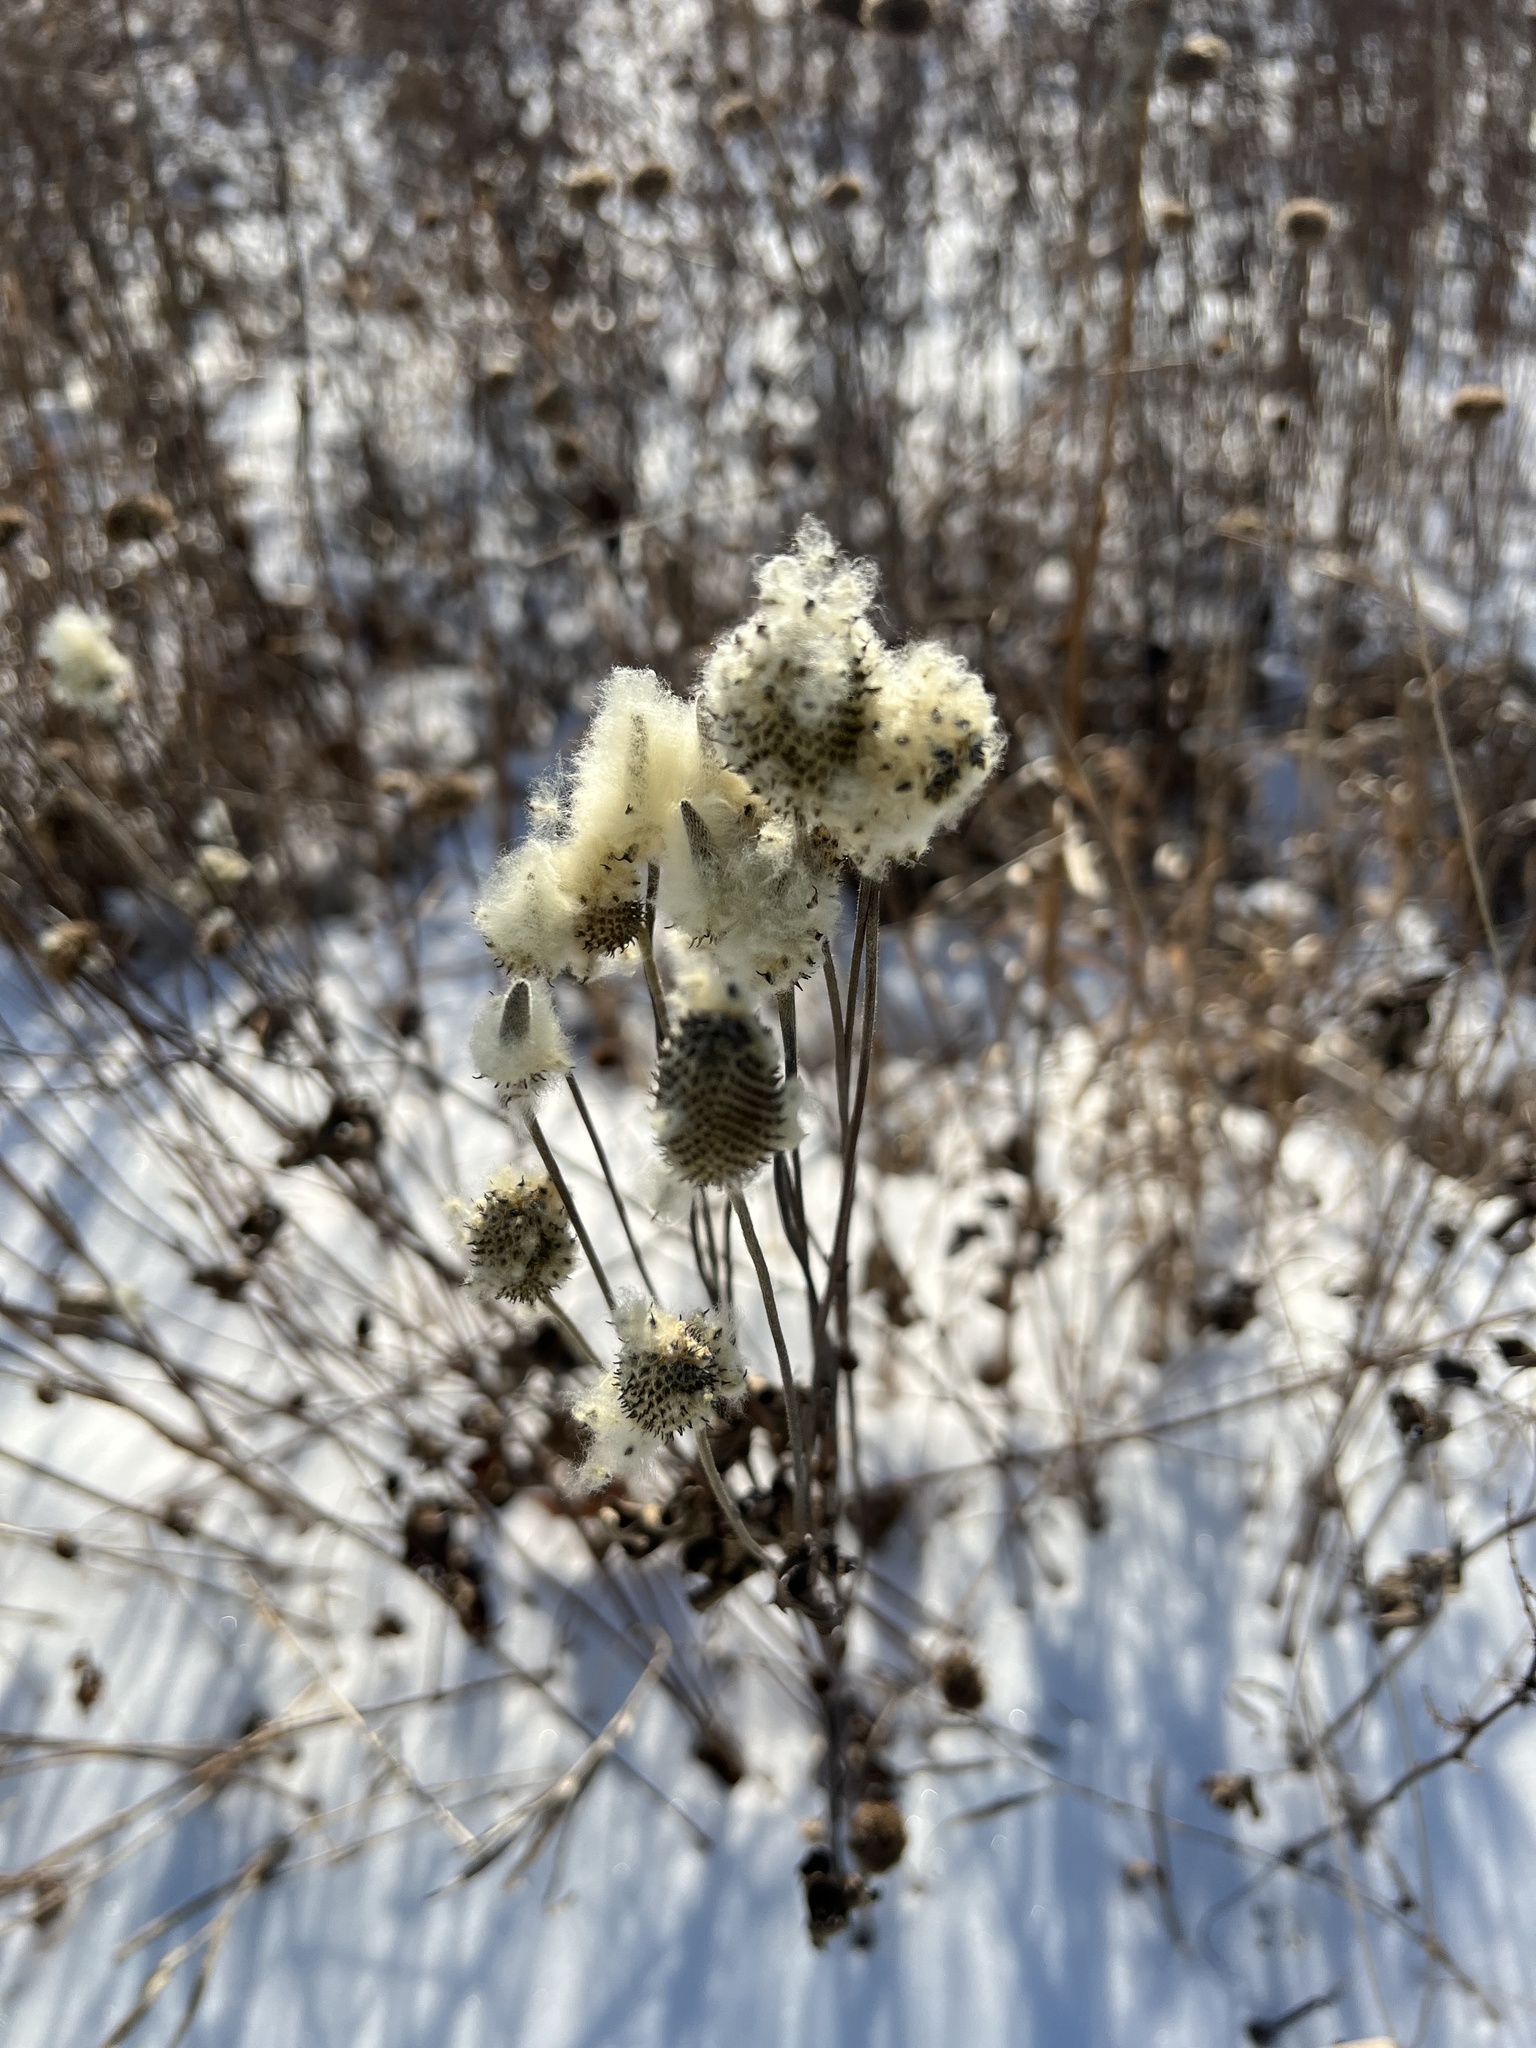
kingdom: Plantae
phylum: Tracheophyta
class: Magnoliopsida
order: Ranunculales
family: Ranunculaceae
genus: Anemone
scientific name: Anemone virginiana
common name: Tall anemone
